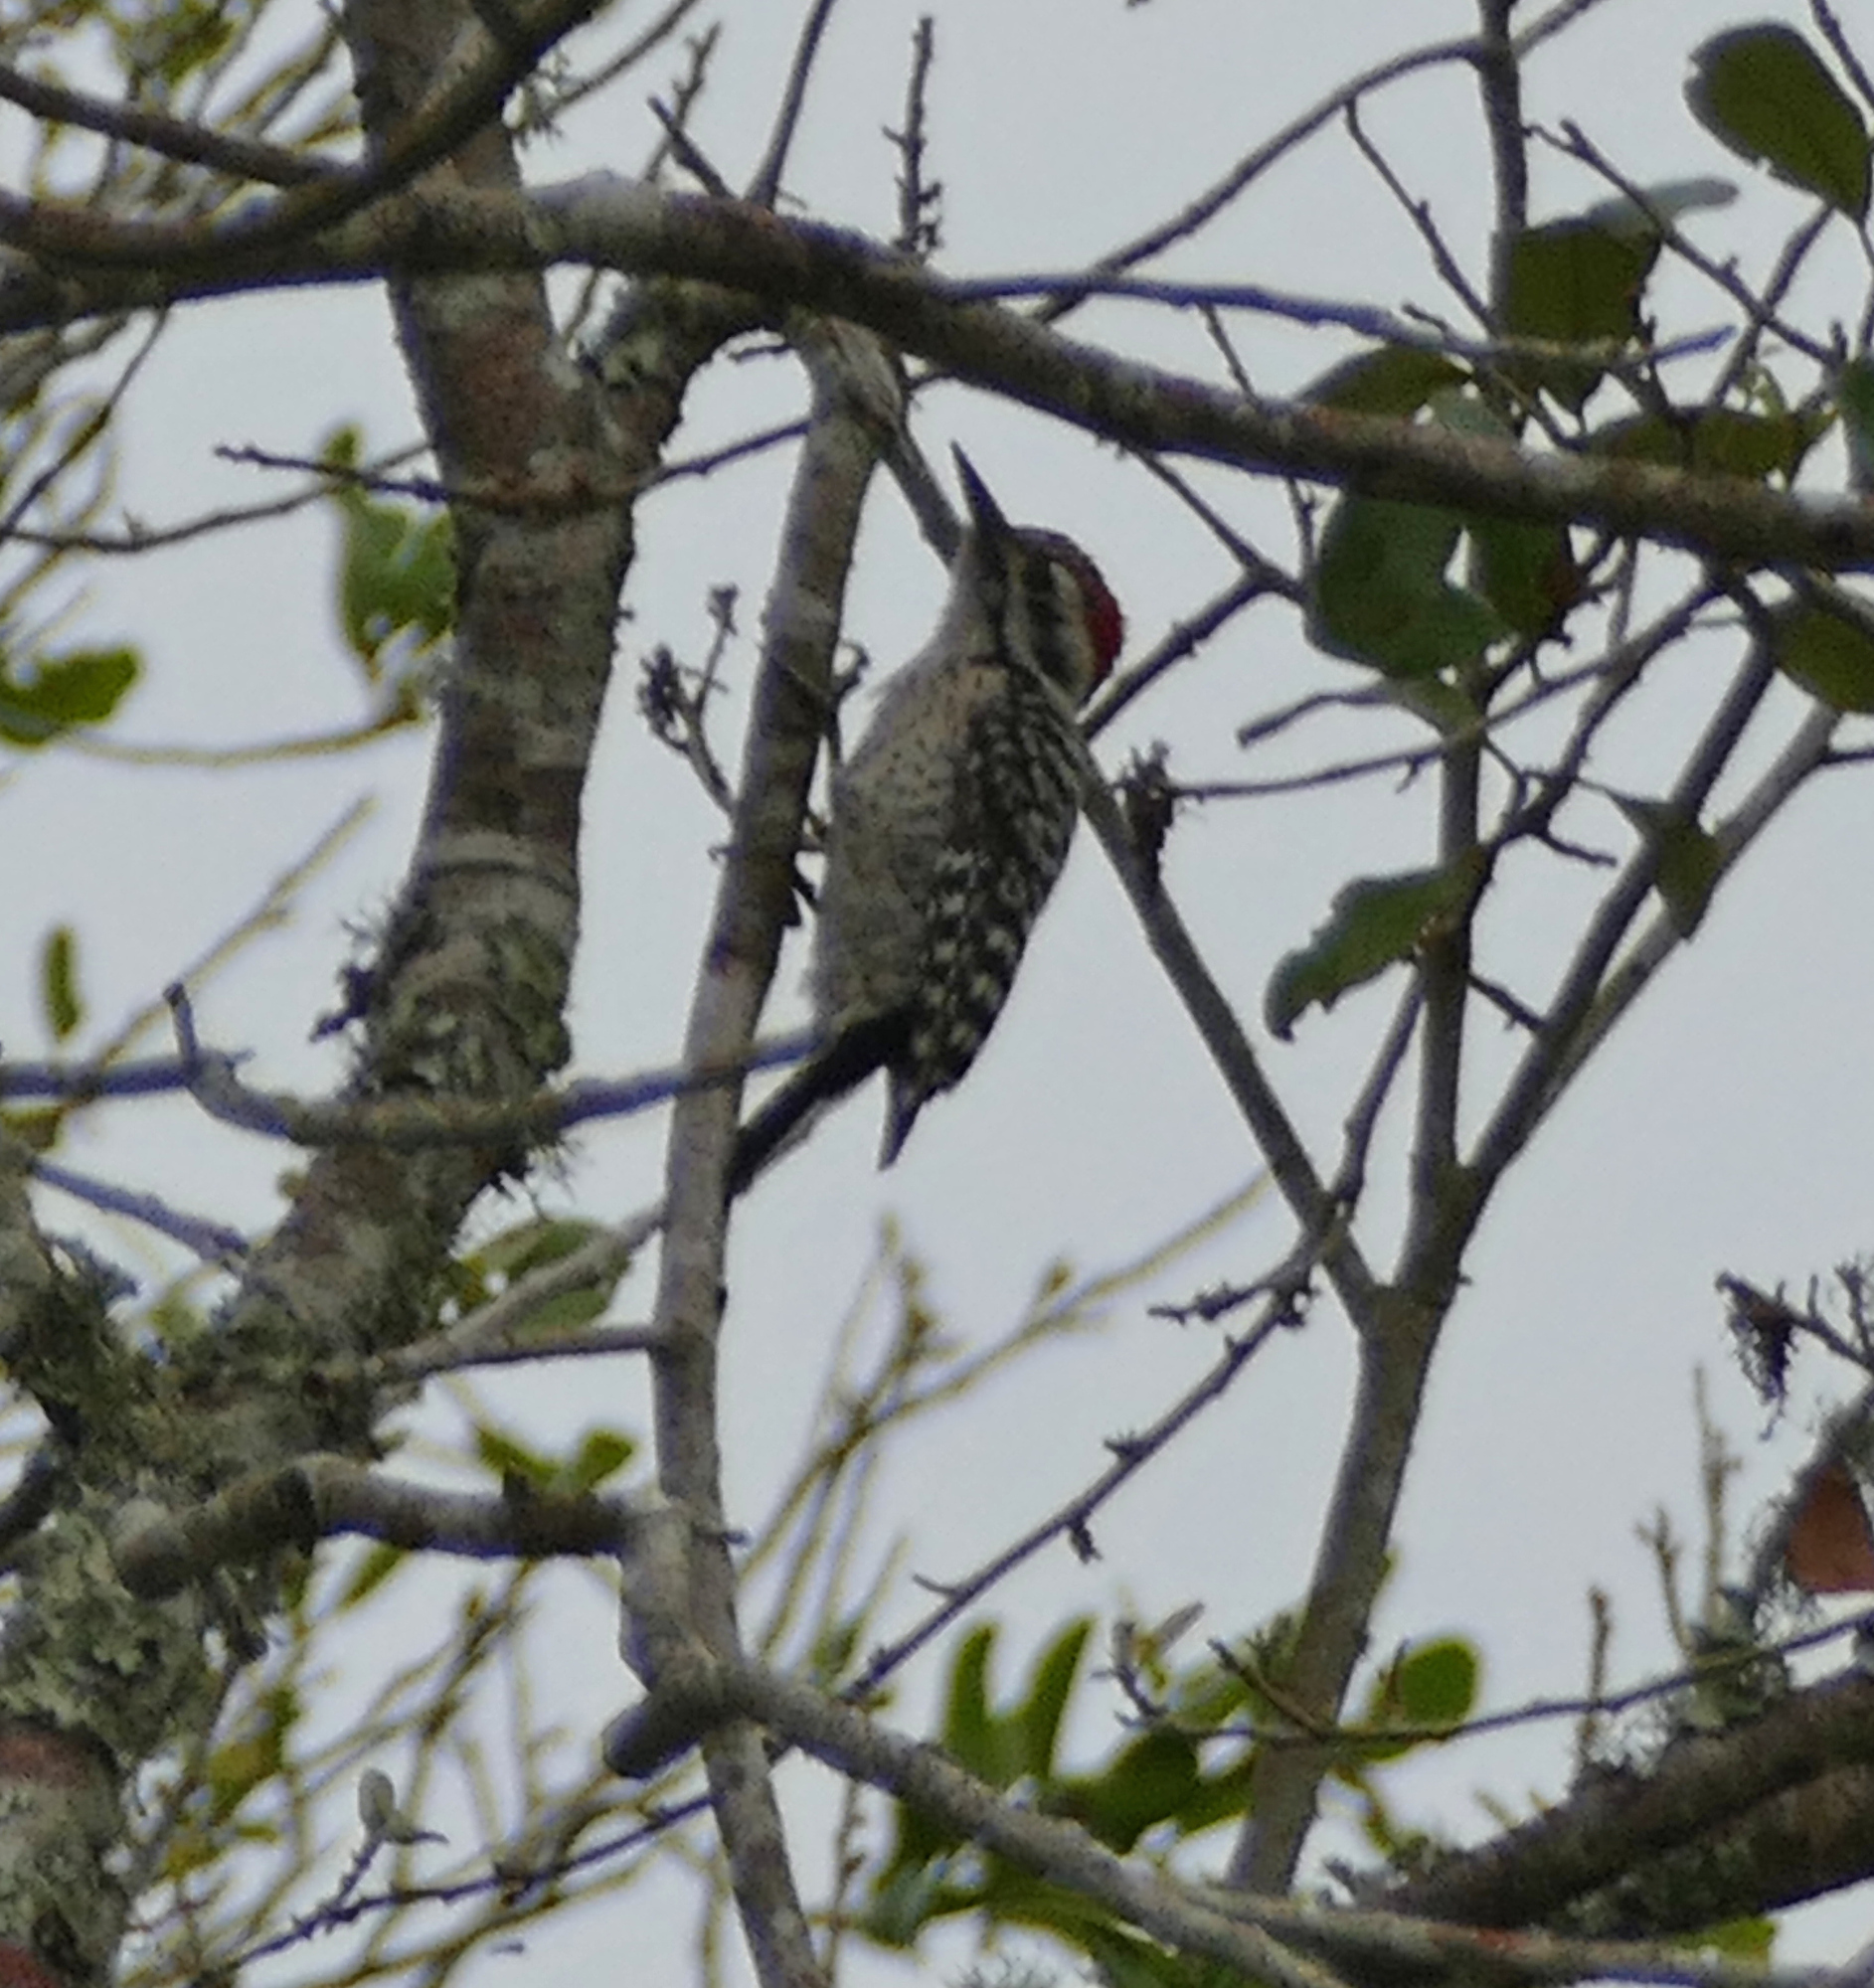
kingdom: Animalia
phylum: Chordata
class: Aves
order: Piciformes
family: Picidae
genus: Dryobates
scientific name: Dryobates scalaris
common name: Ladder-backed woodpecker
